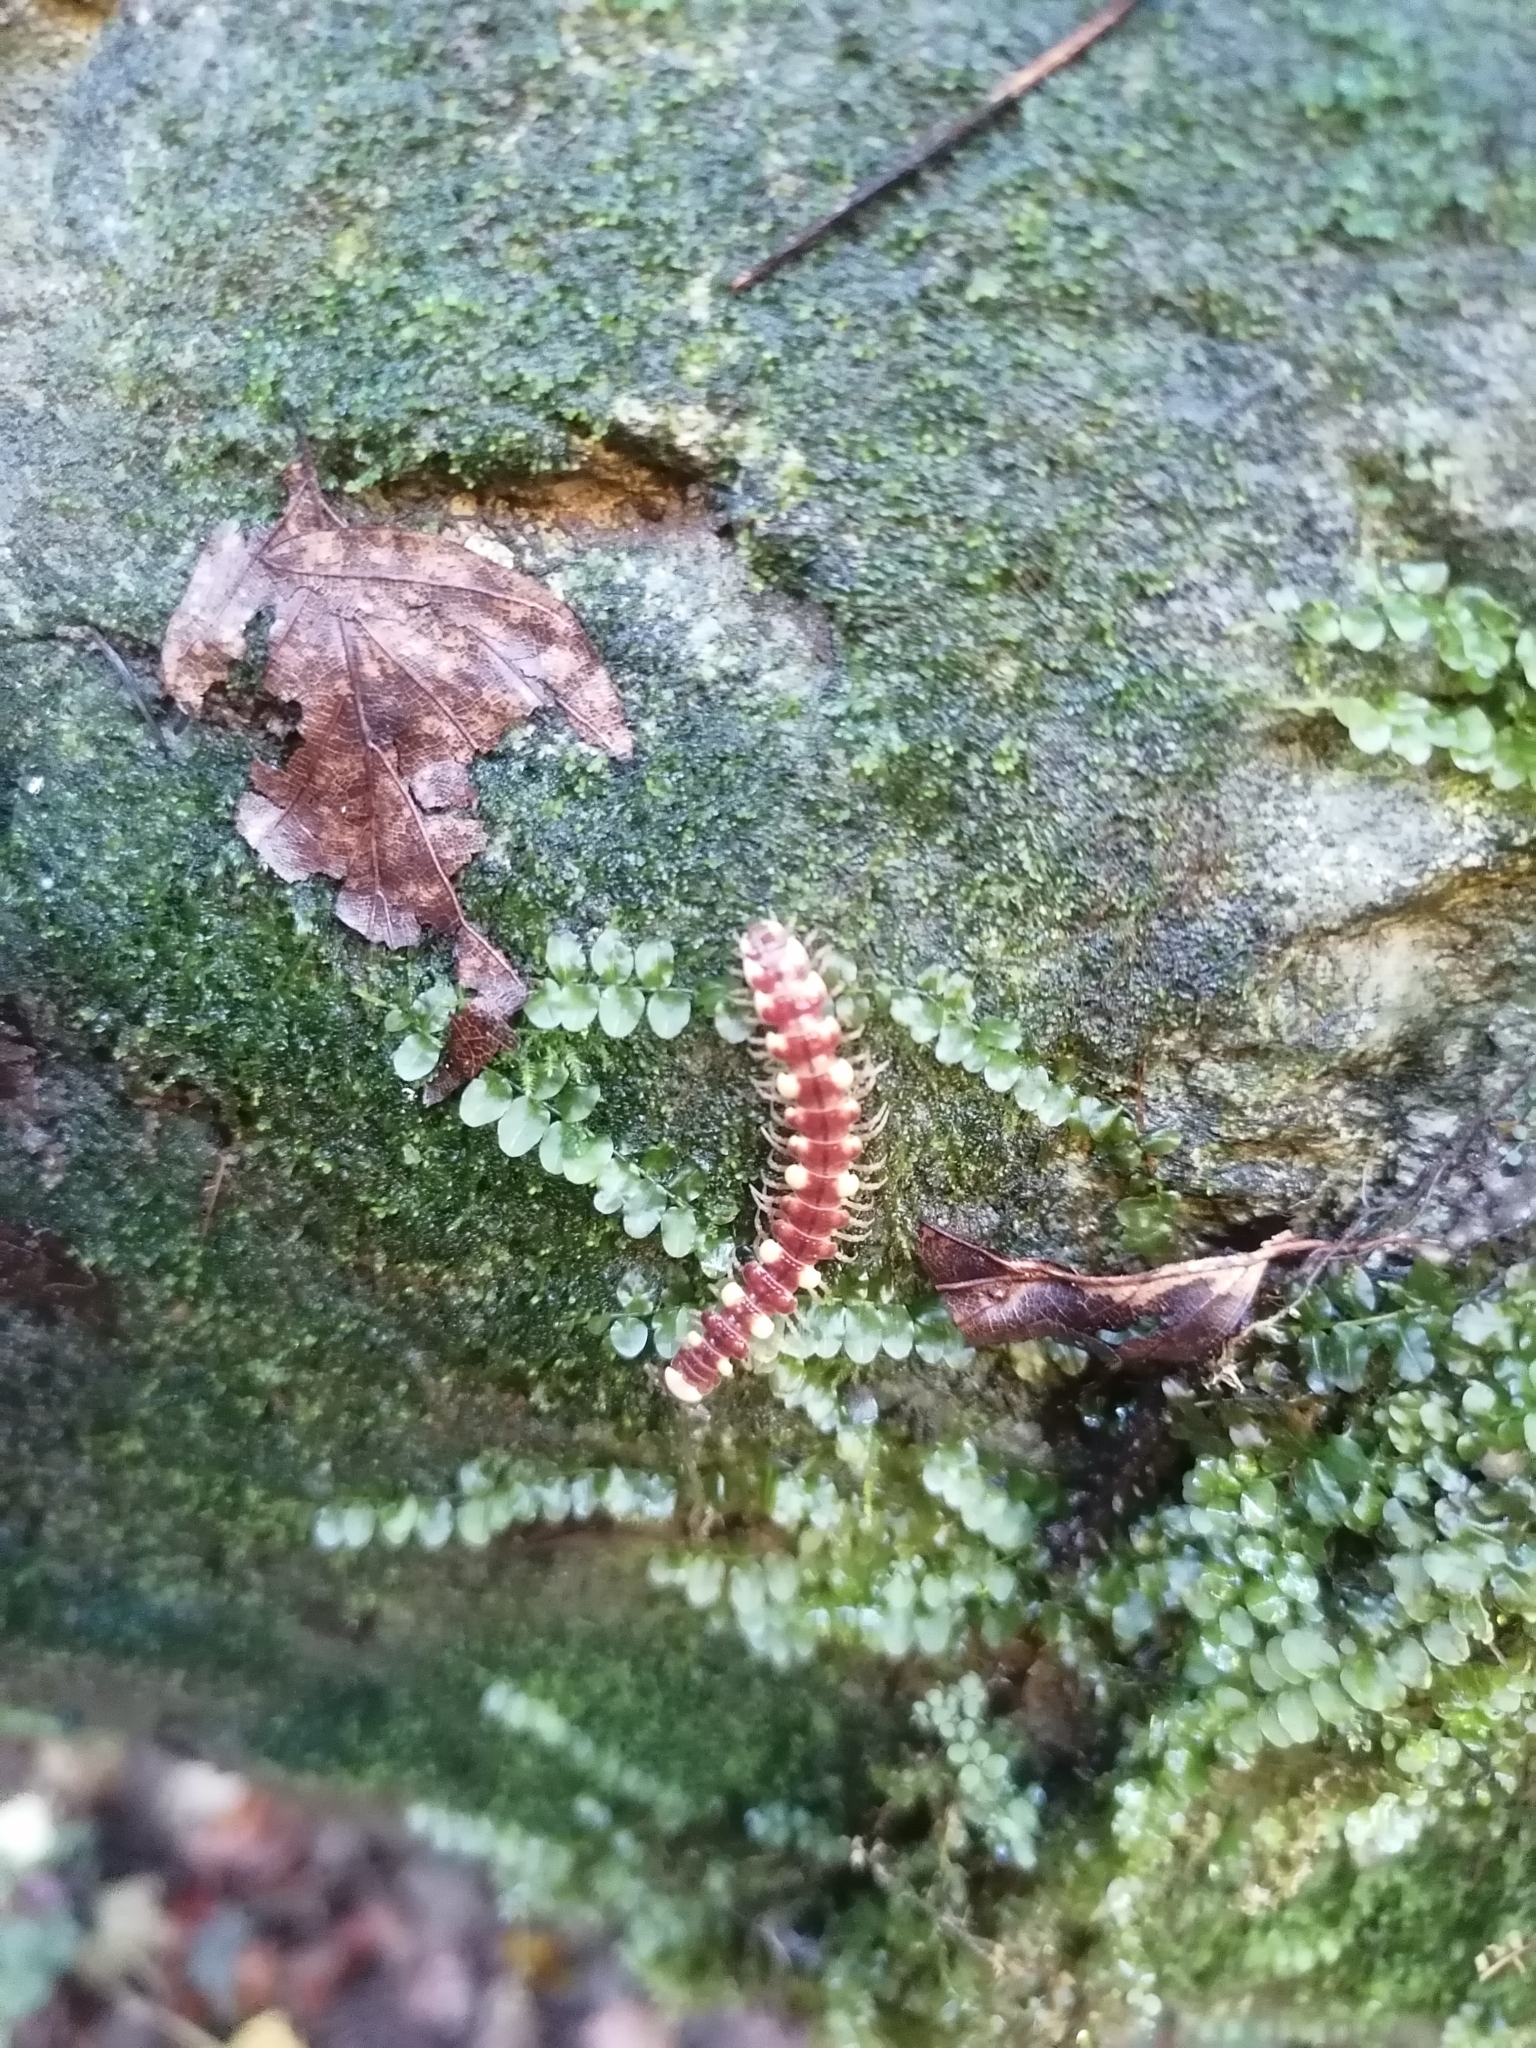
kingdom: Animalia
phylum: Arthropoda
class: Diplopoda
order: Polydesmida
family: Polydesmidae
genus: Polydesmus
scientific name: Polydesmus collaris
